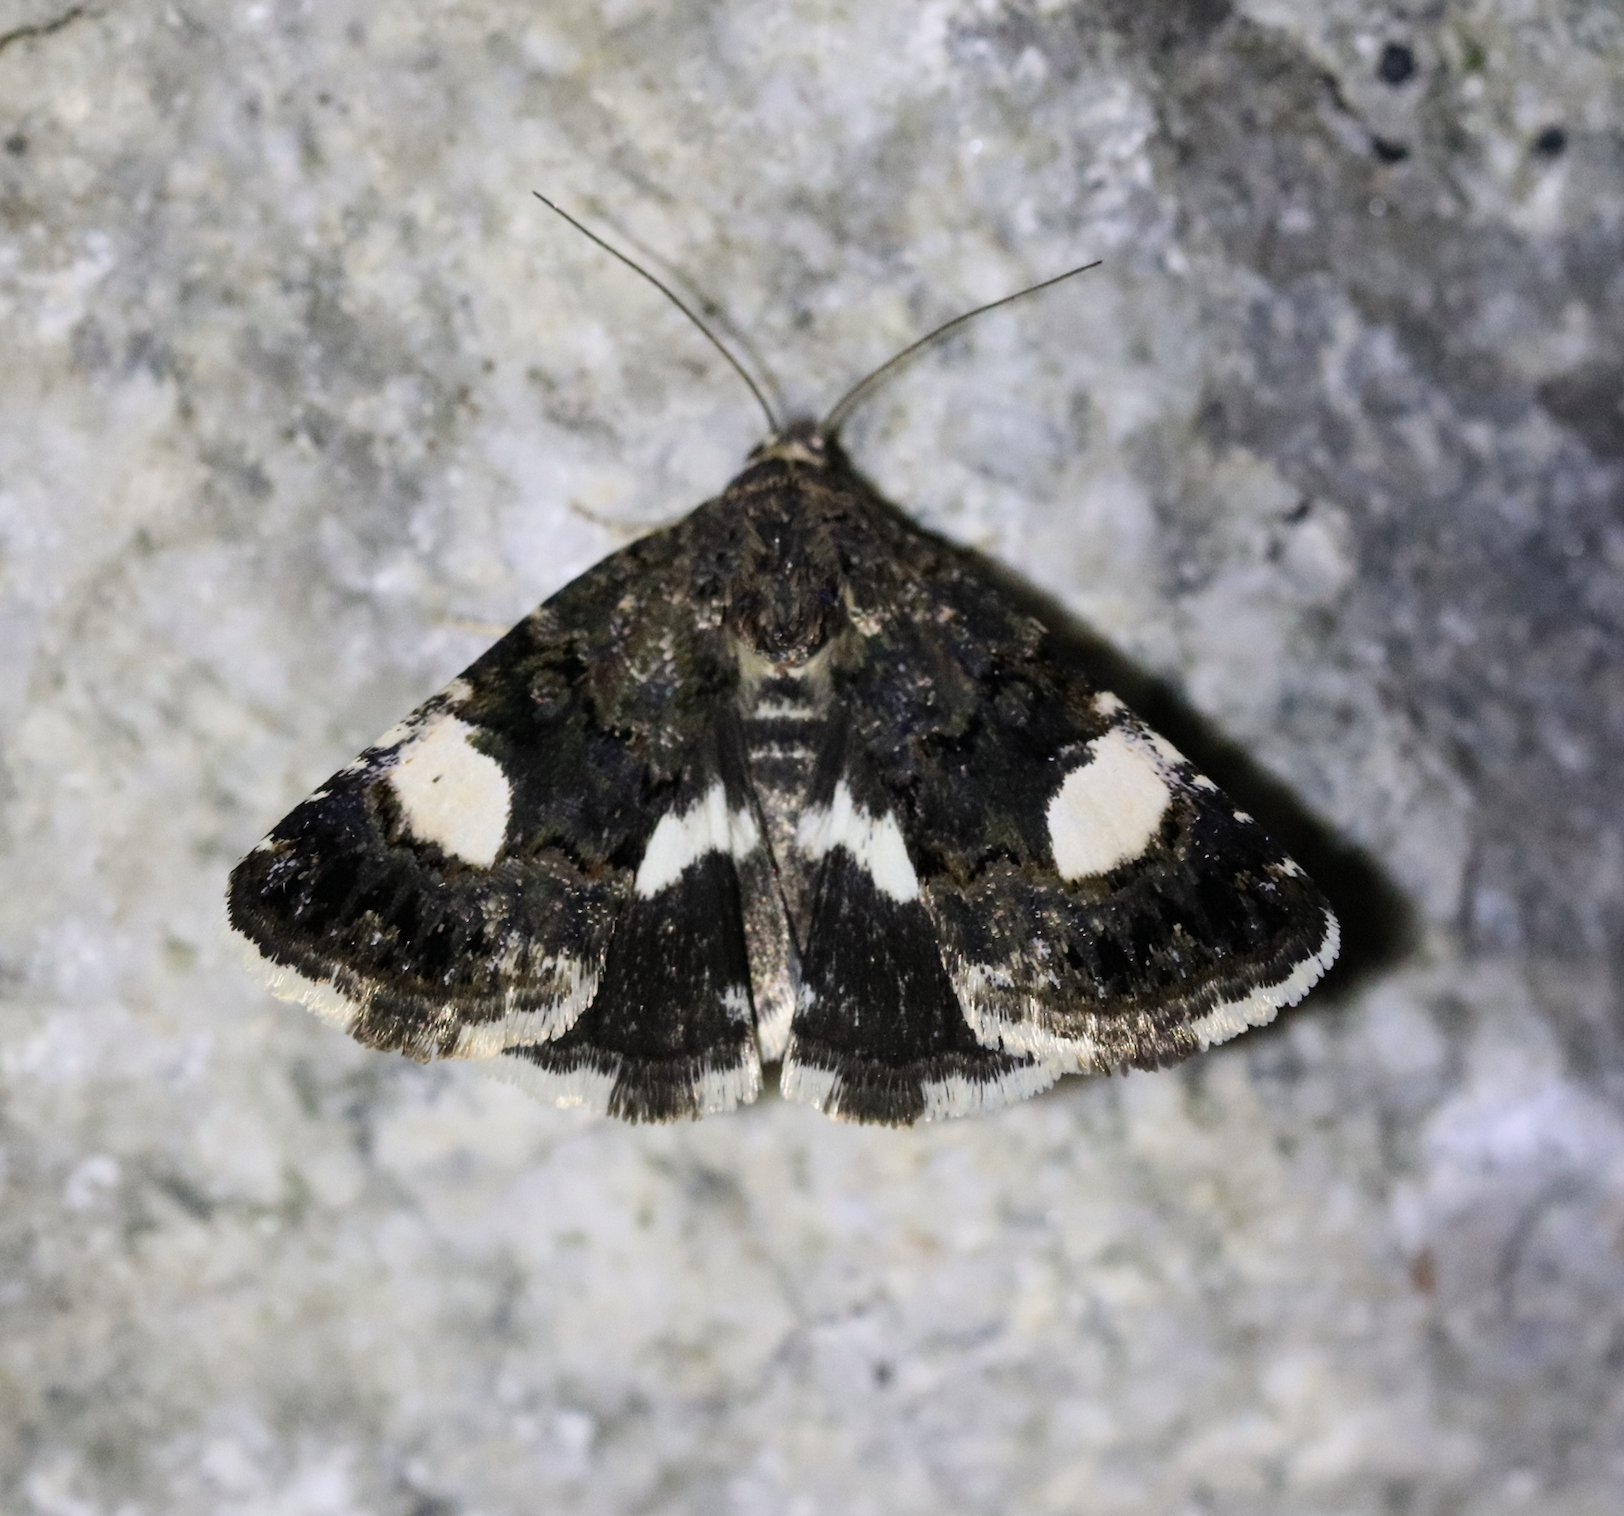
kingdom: Animalia
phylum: Arthropoda
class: Insecta
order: Lepidoptera
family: Erebidae
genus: Tyta
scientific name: Tyta luctuosa
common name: Four-spotted
